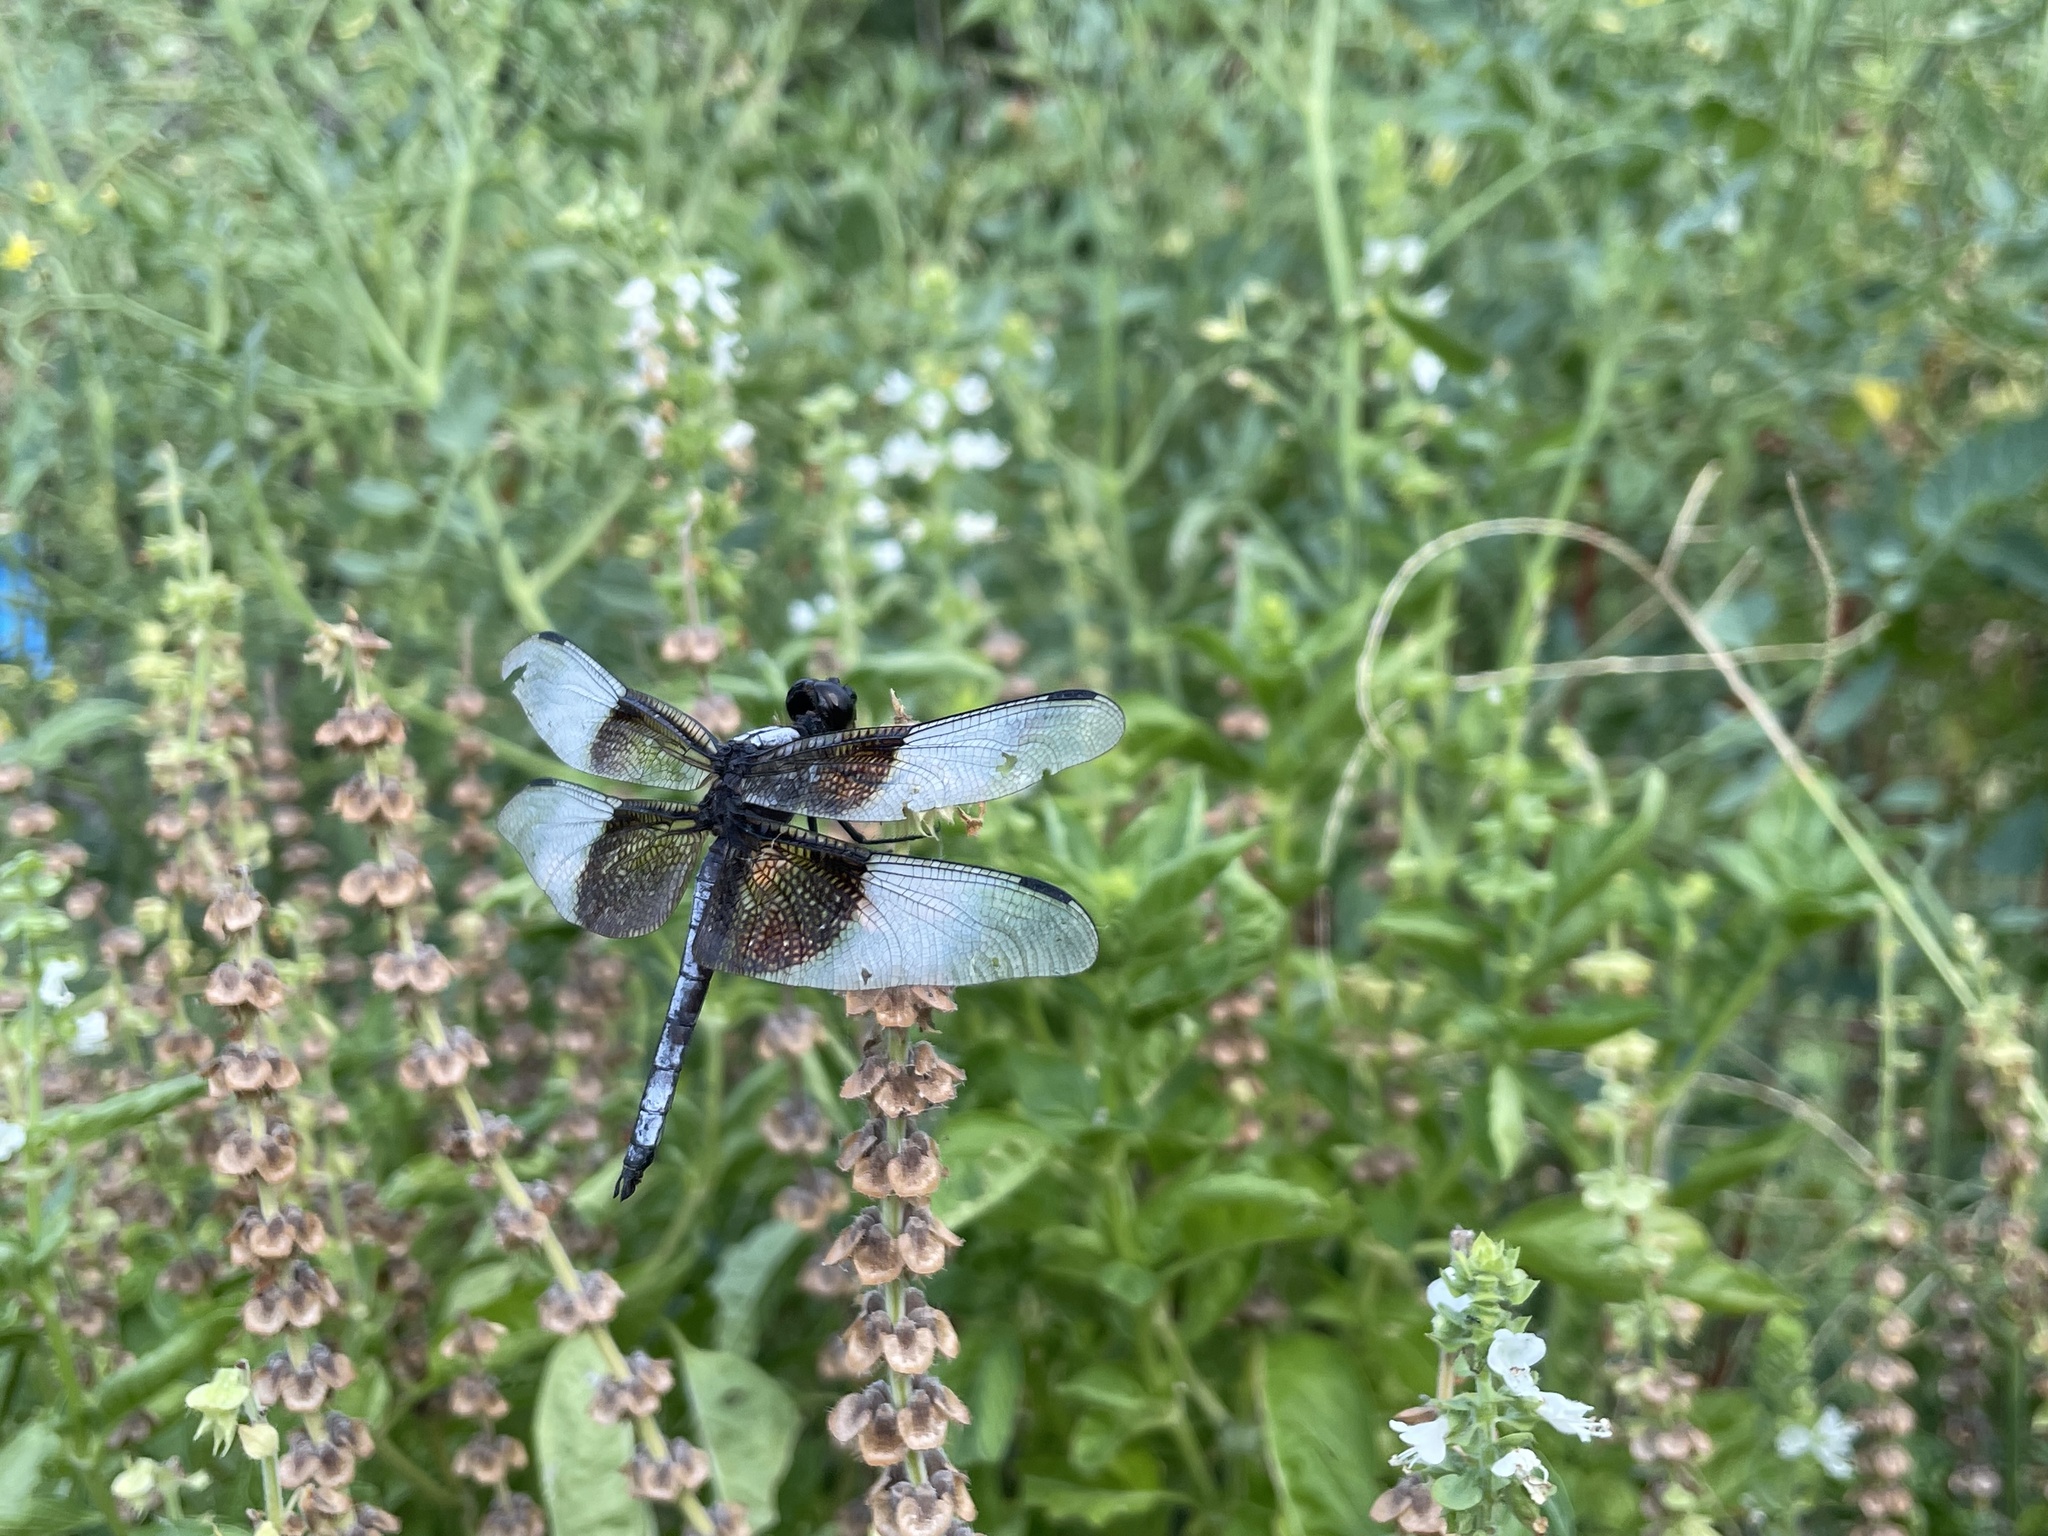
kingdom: Animalia
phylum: Arthropoda
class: Insecta
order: Odonata
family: Libellulidae
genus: Libellula
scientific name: Libellula luctuosa
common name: Widow skimmer
